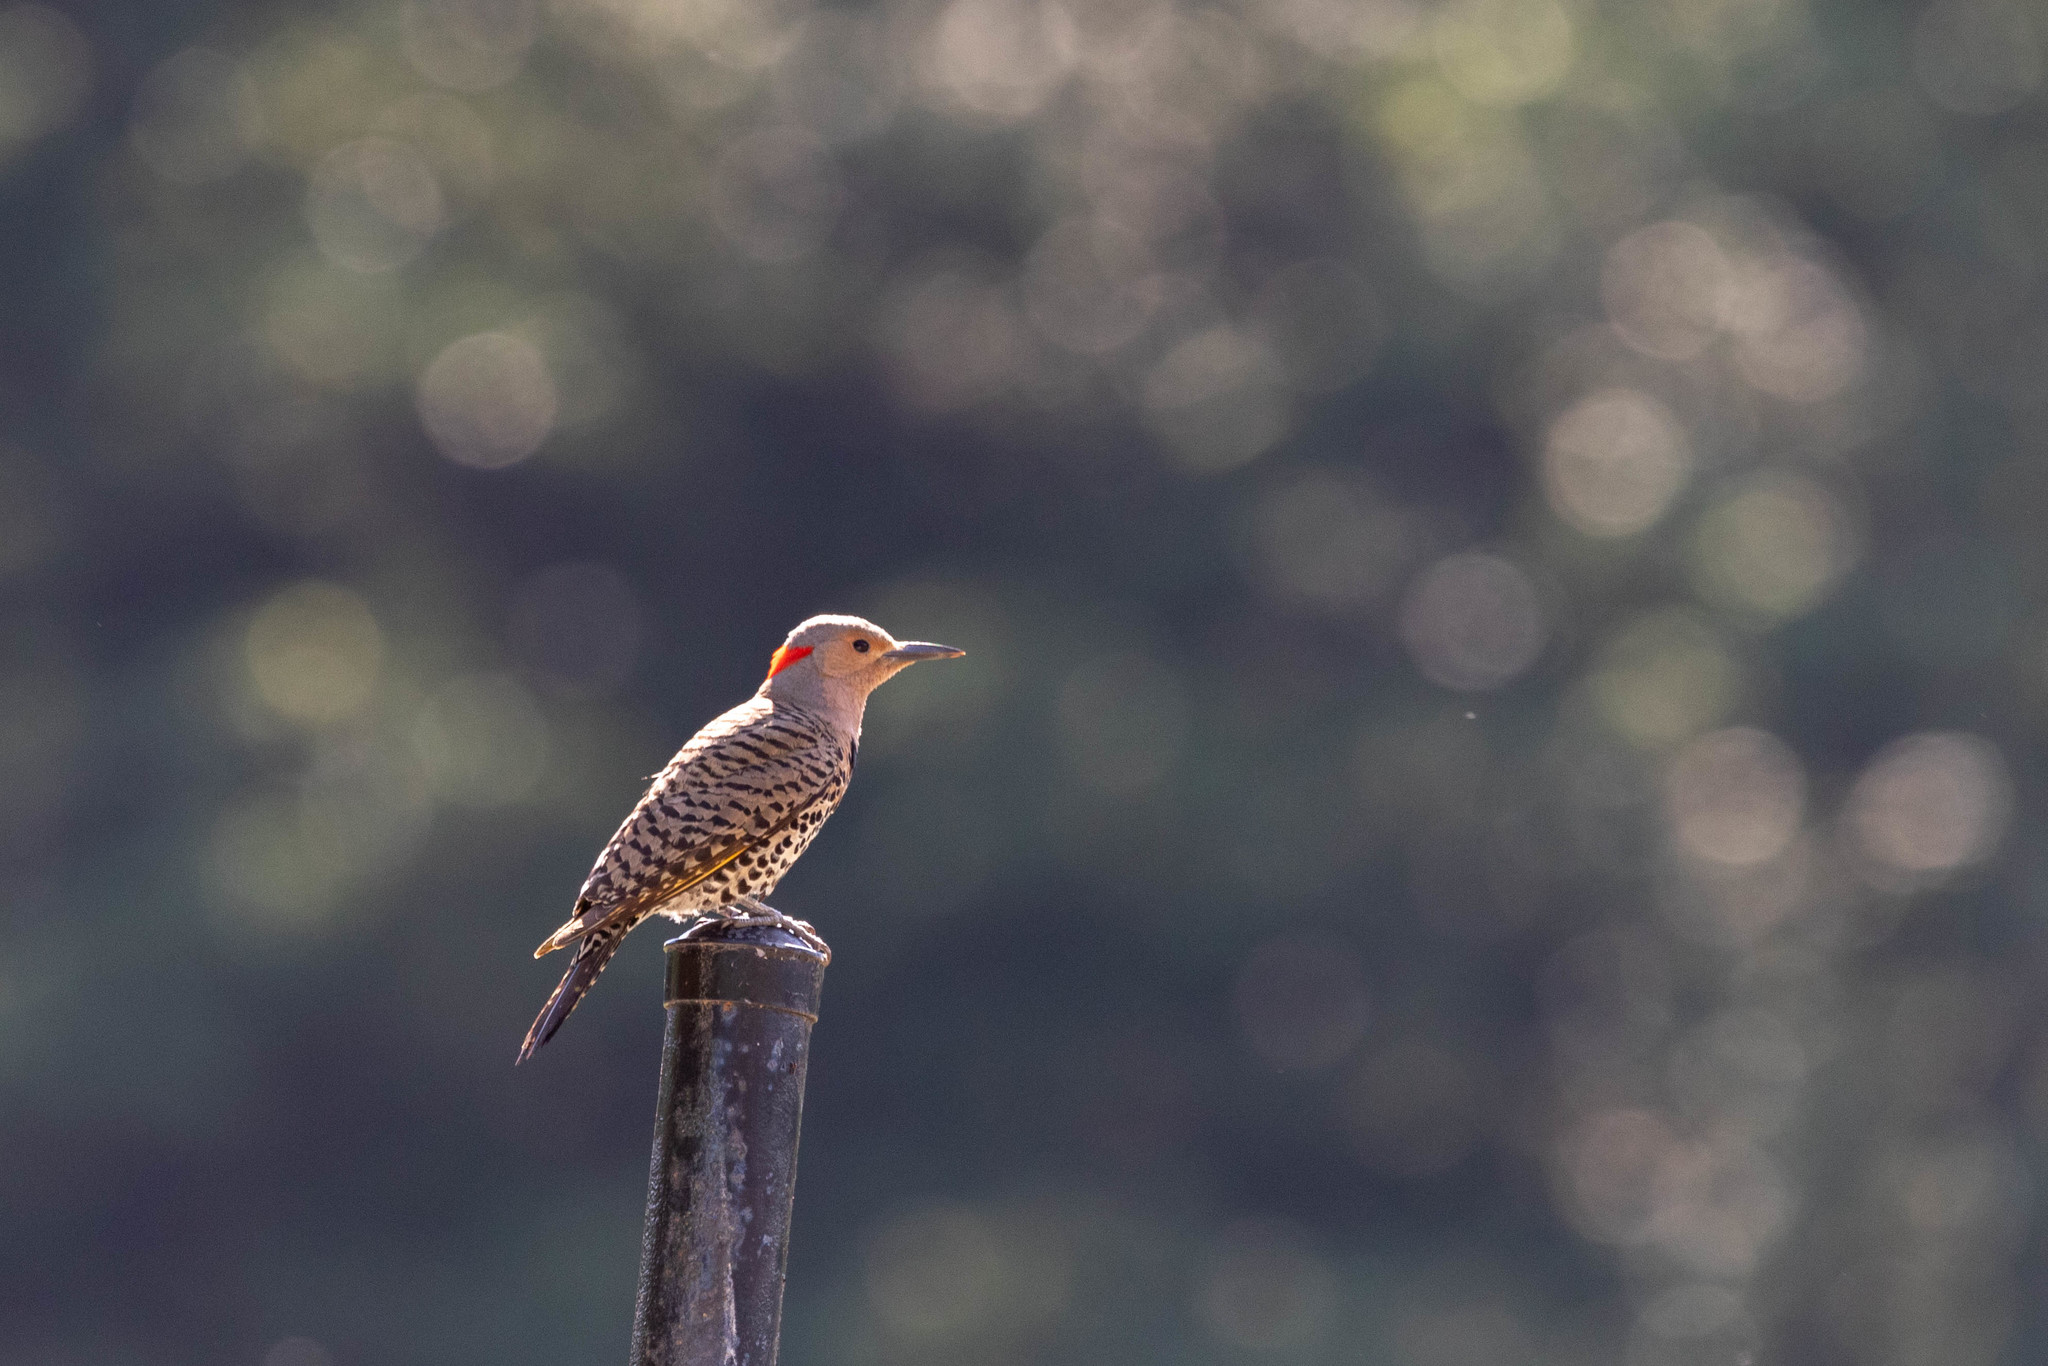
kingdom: Animalia
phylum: Chordata
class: Aves
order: Piciformes
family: Picidae
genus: Colaptes
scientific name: Colaptes auratus
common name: Northern flicker
